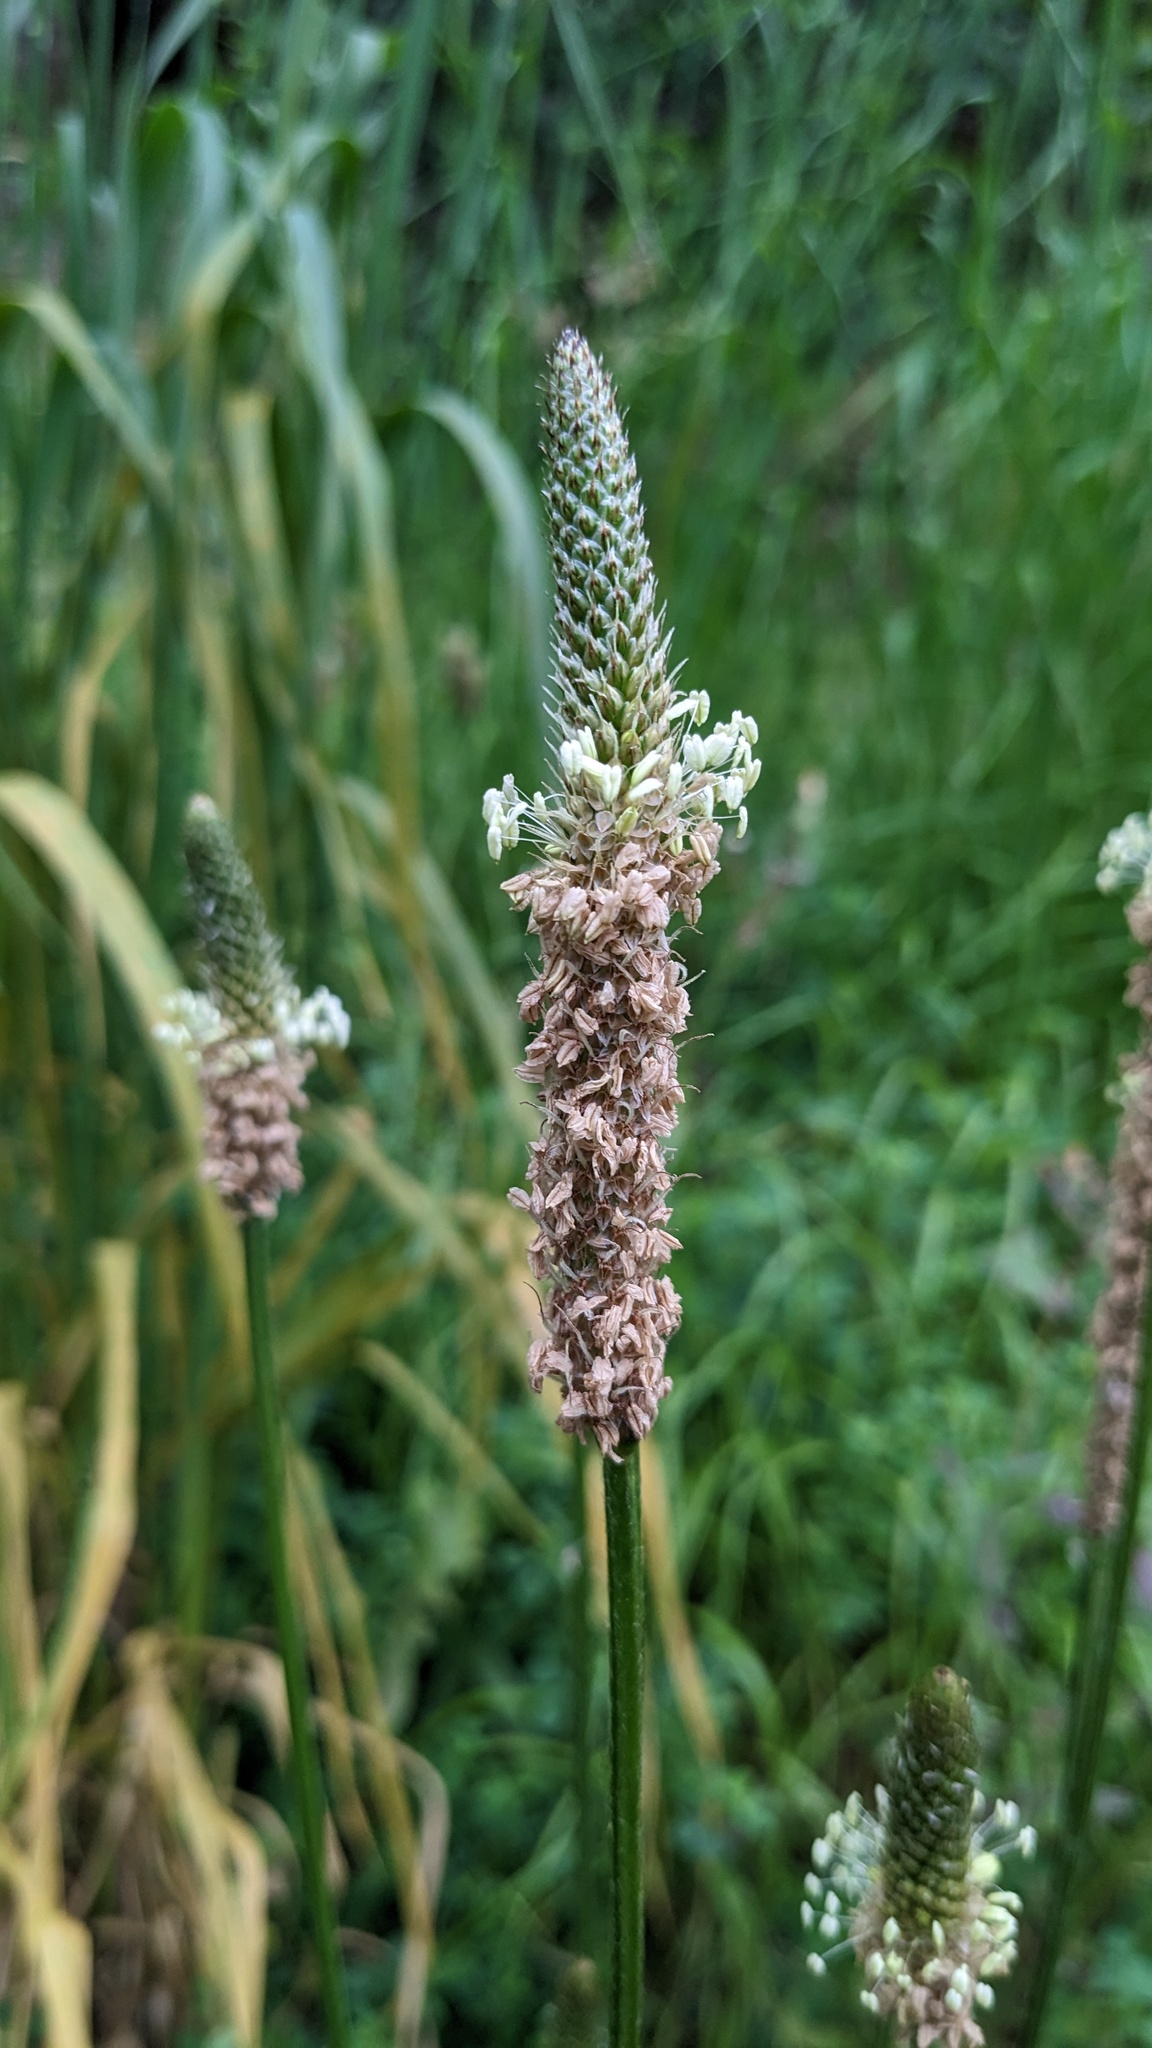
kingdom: Plantae
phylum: Tracheophyta
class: Magnoliopsida
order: Lamiales
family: Plantaginaceae
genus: Plantago
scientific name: Plantago lanceolata
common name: Ribwort plantain
